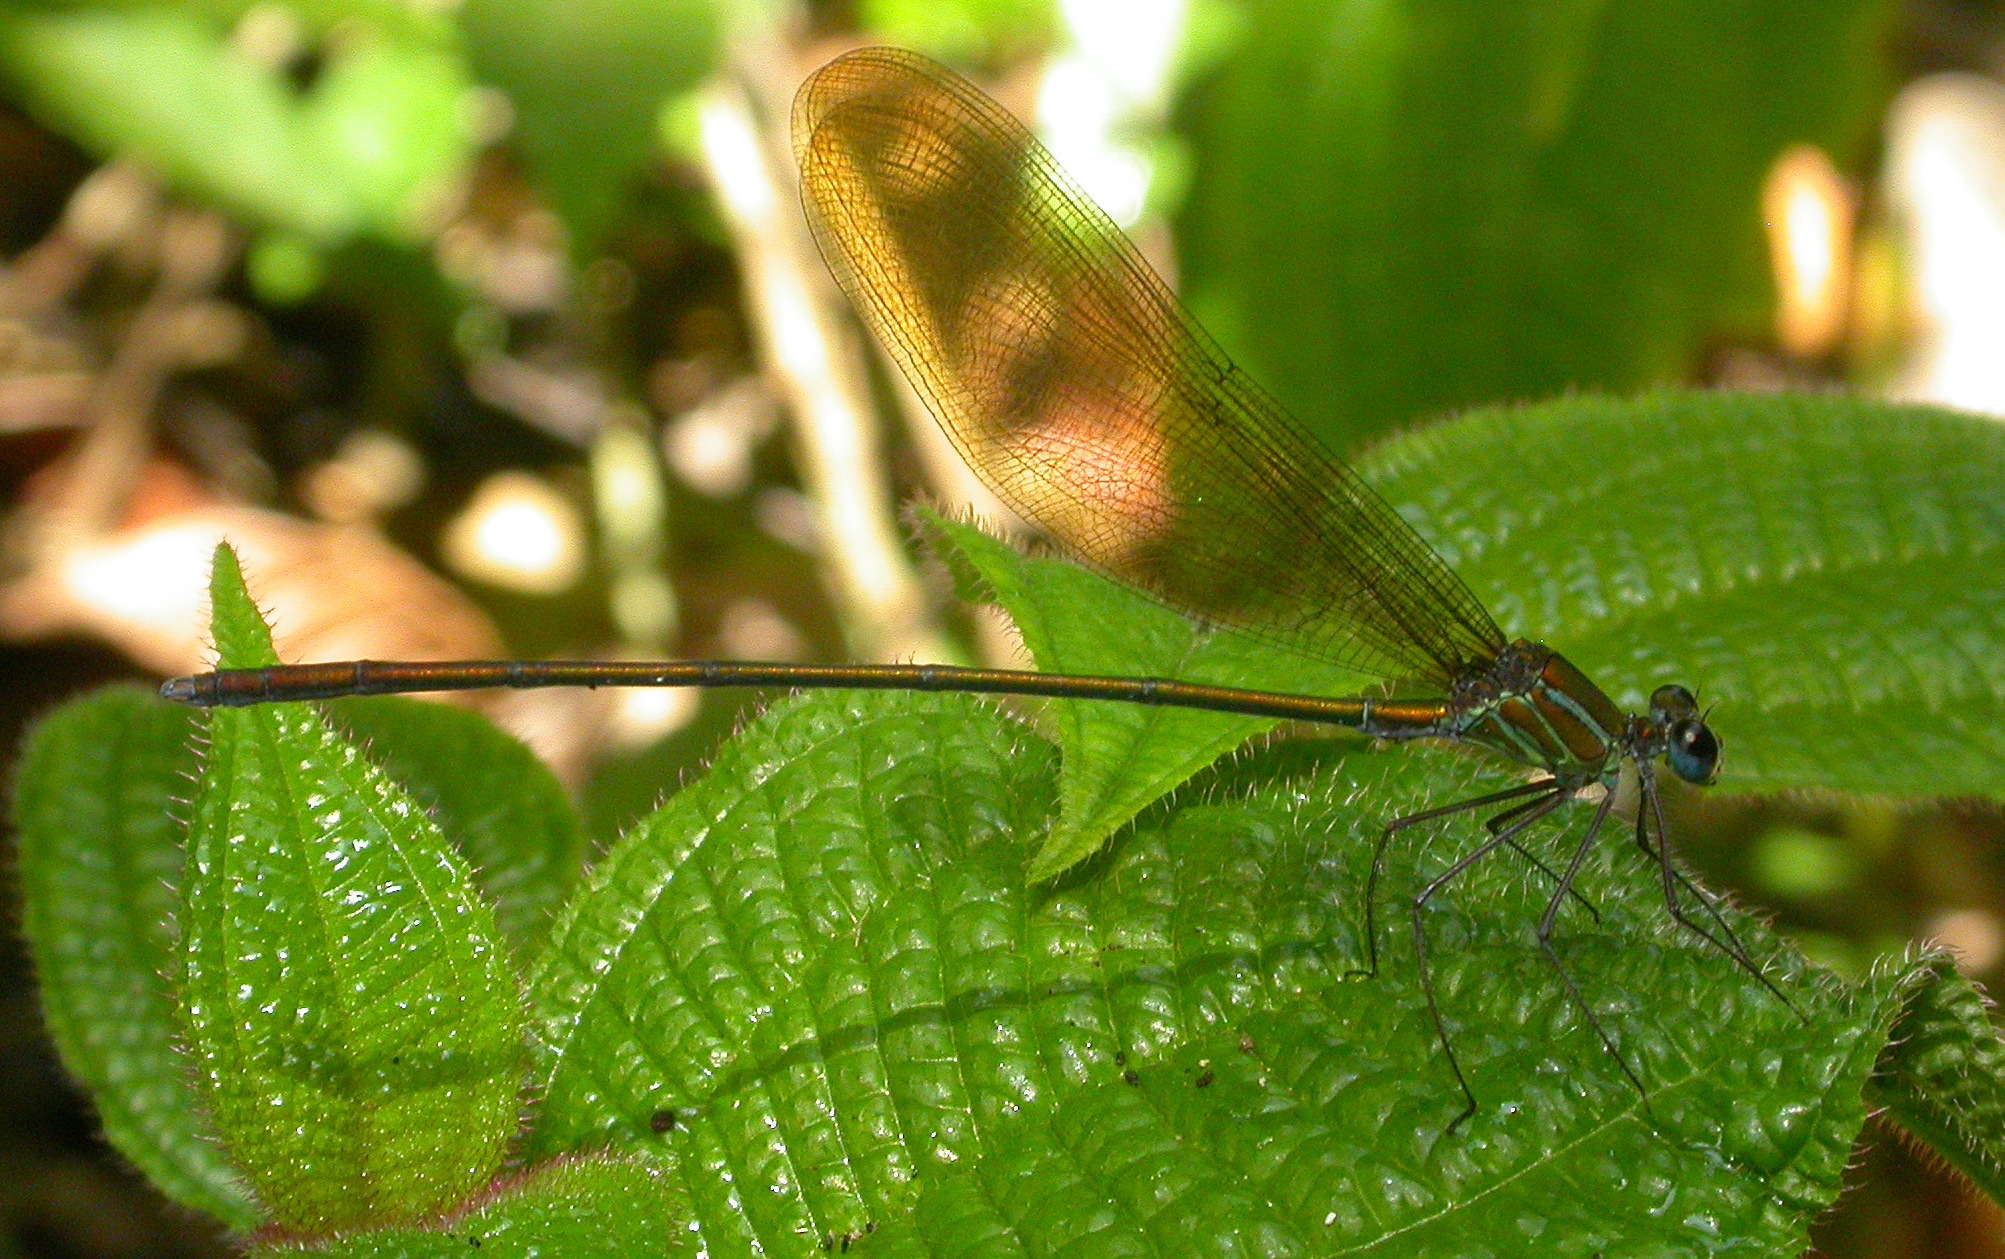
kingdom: Animalia
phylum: Arthropoda
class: Insecta
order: Odonata
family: Calopterygidae
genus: Phaon
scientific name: Phaon rasoherinae
